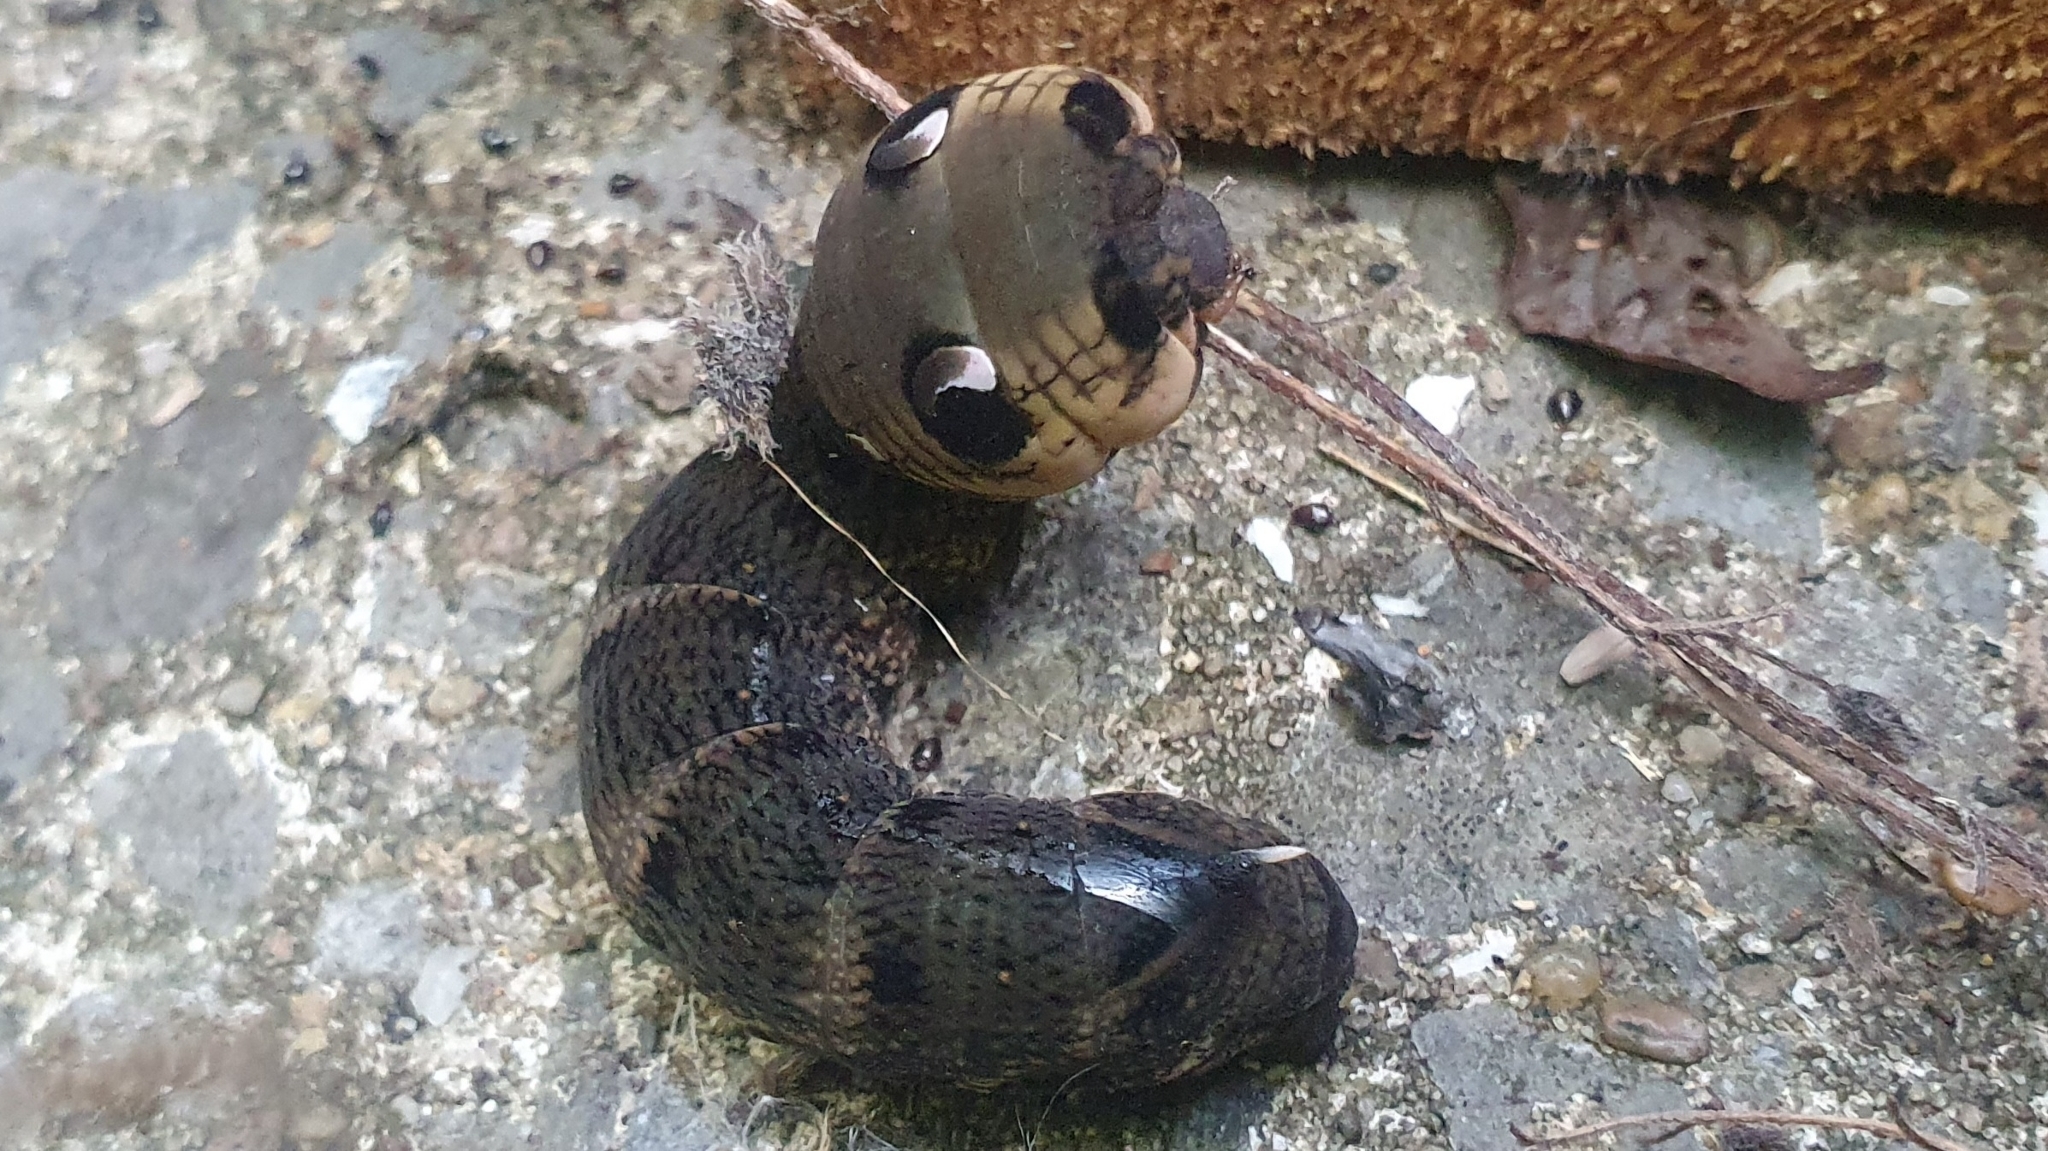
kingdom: Animalia
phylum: Arthropoda
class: Insecta
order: Lepidoptera
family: Sphingidae
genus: Deilephila
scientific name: Deilephila elpenor
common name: Elephant hawk-moth
